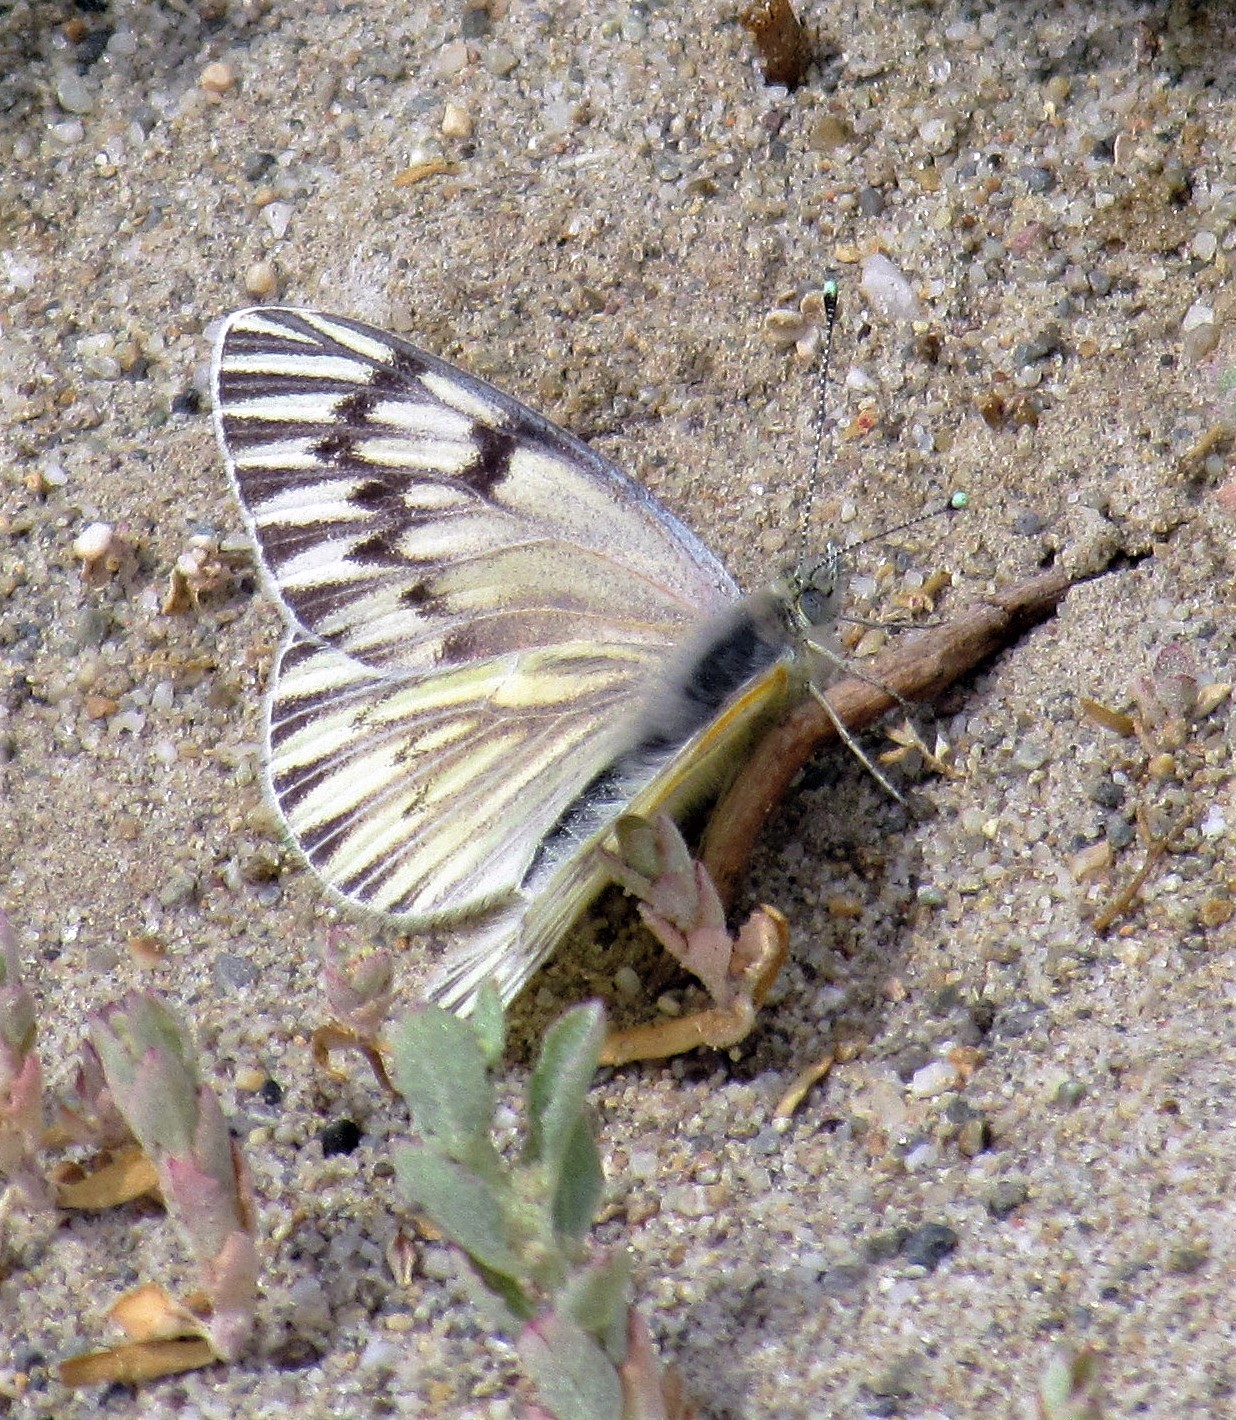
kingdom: Animalia
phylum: Arthropoda
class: Insecta
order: Lepidoptera
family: Pieridae
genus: Tatochila
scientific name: Tatochila mercedis
